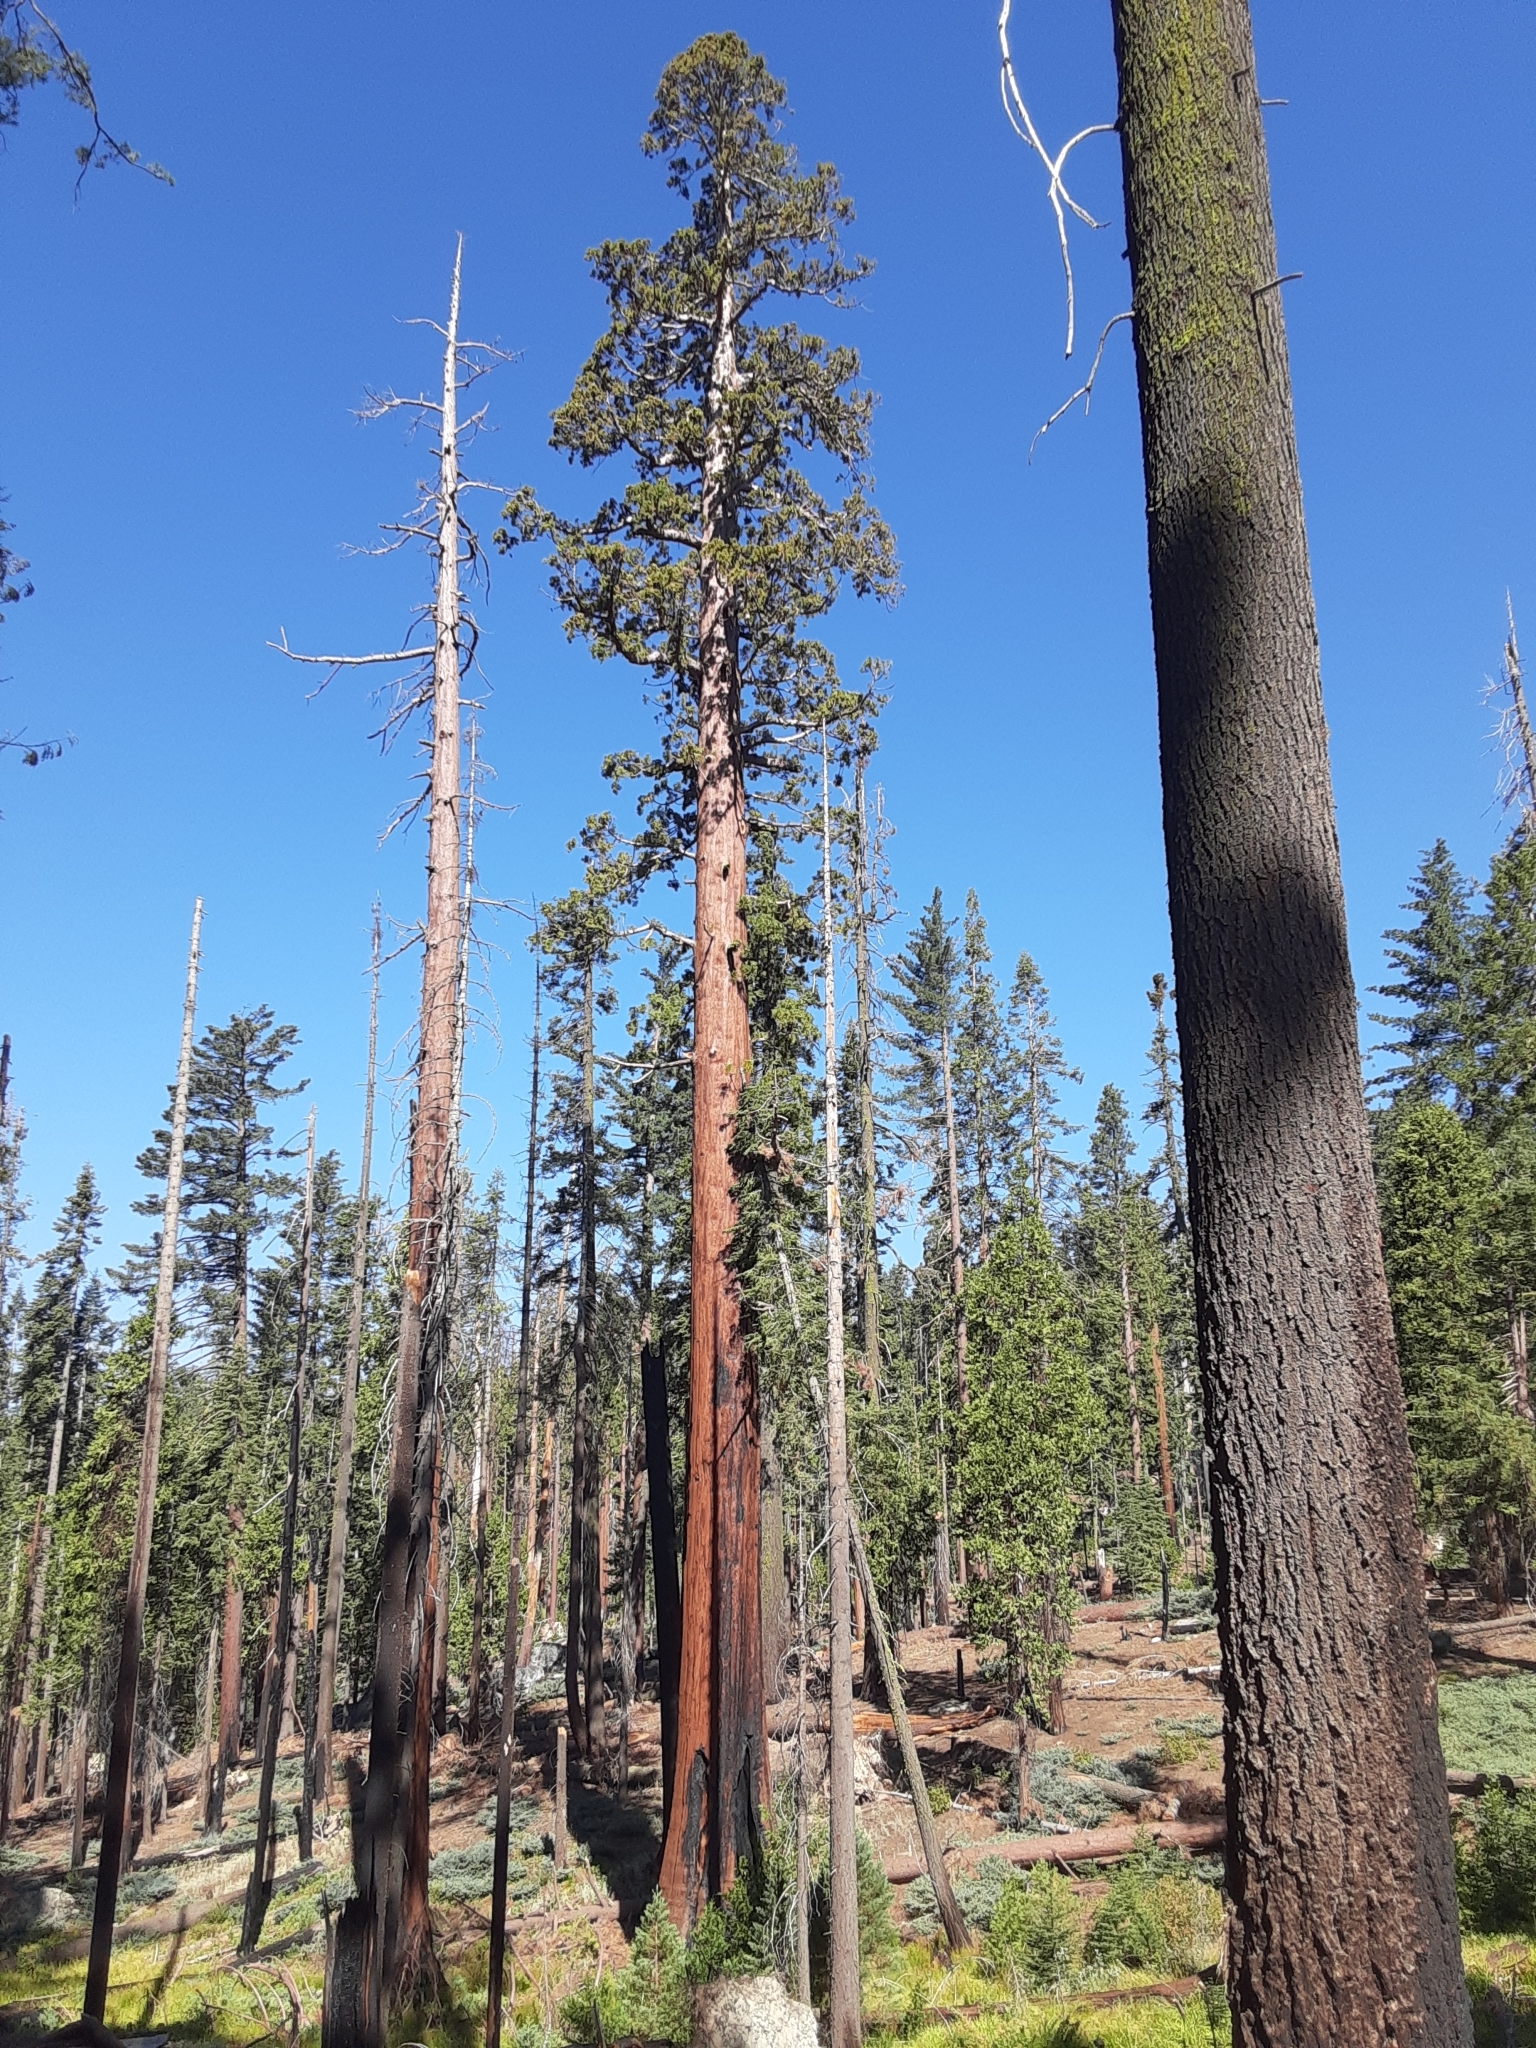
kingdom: Plantae
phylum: Tracheophyta
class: Pinopsida
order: Pinales
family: Cupressaceae
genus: Sequoiadendron
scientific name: Sequoiadendron giganteum
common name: Wellingtonia
